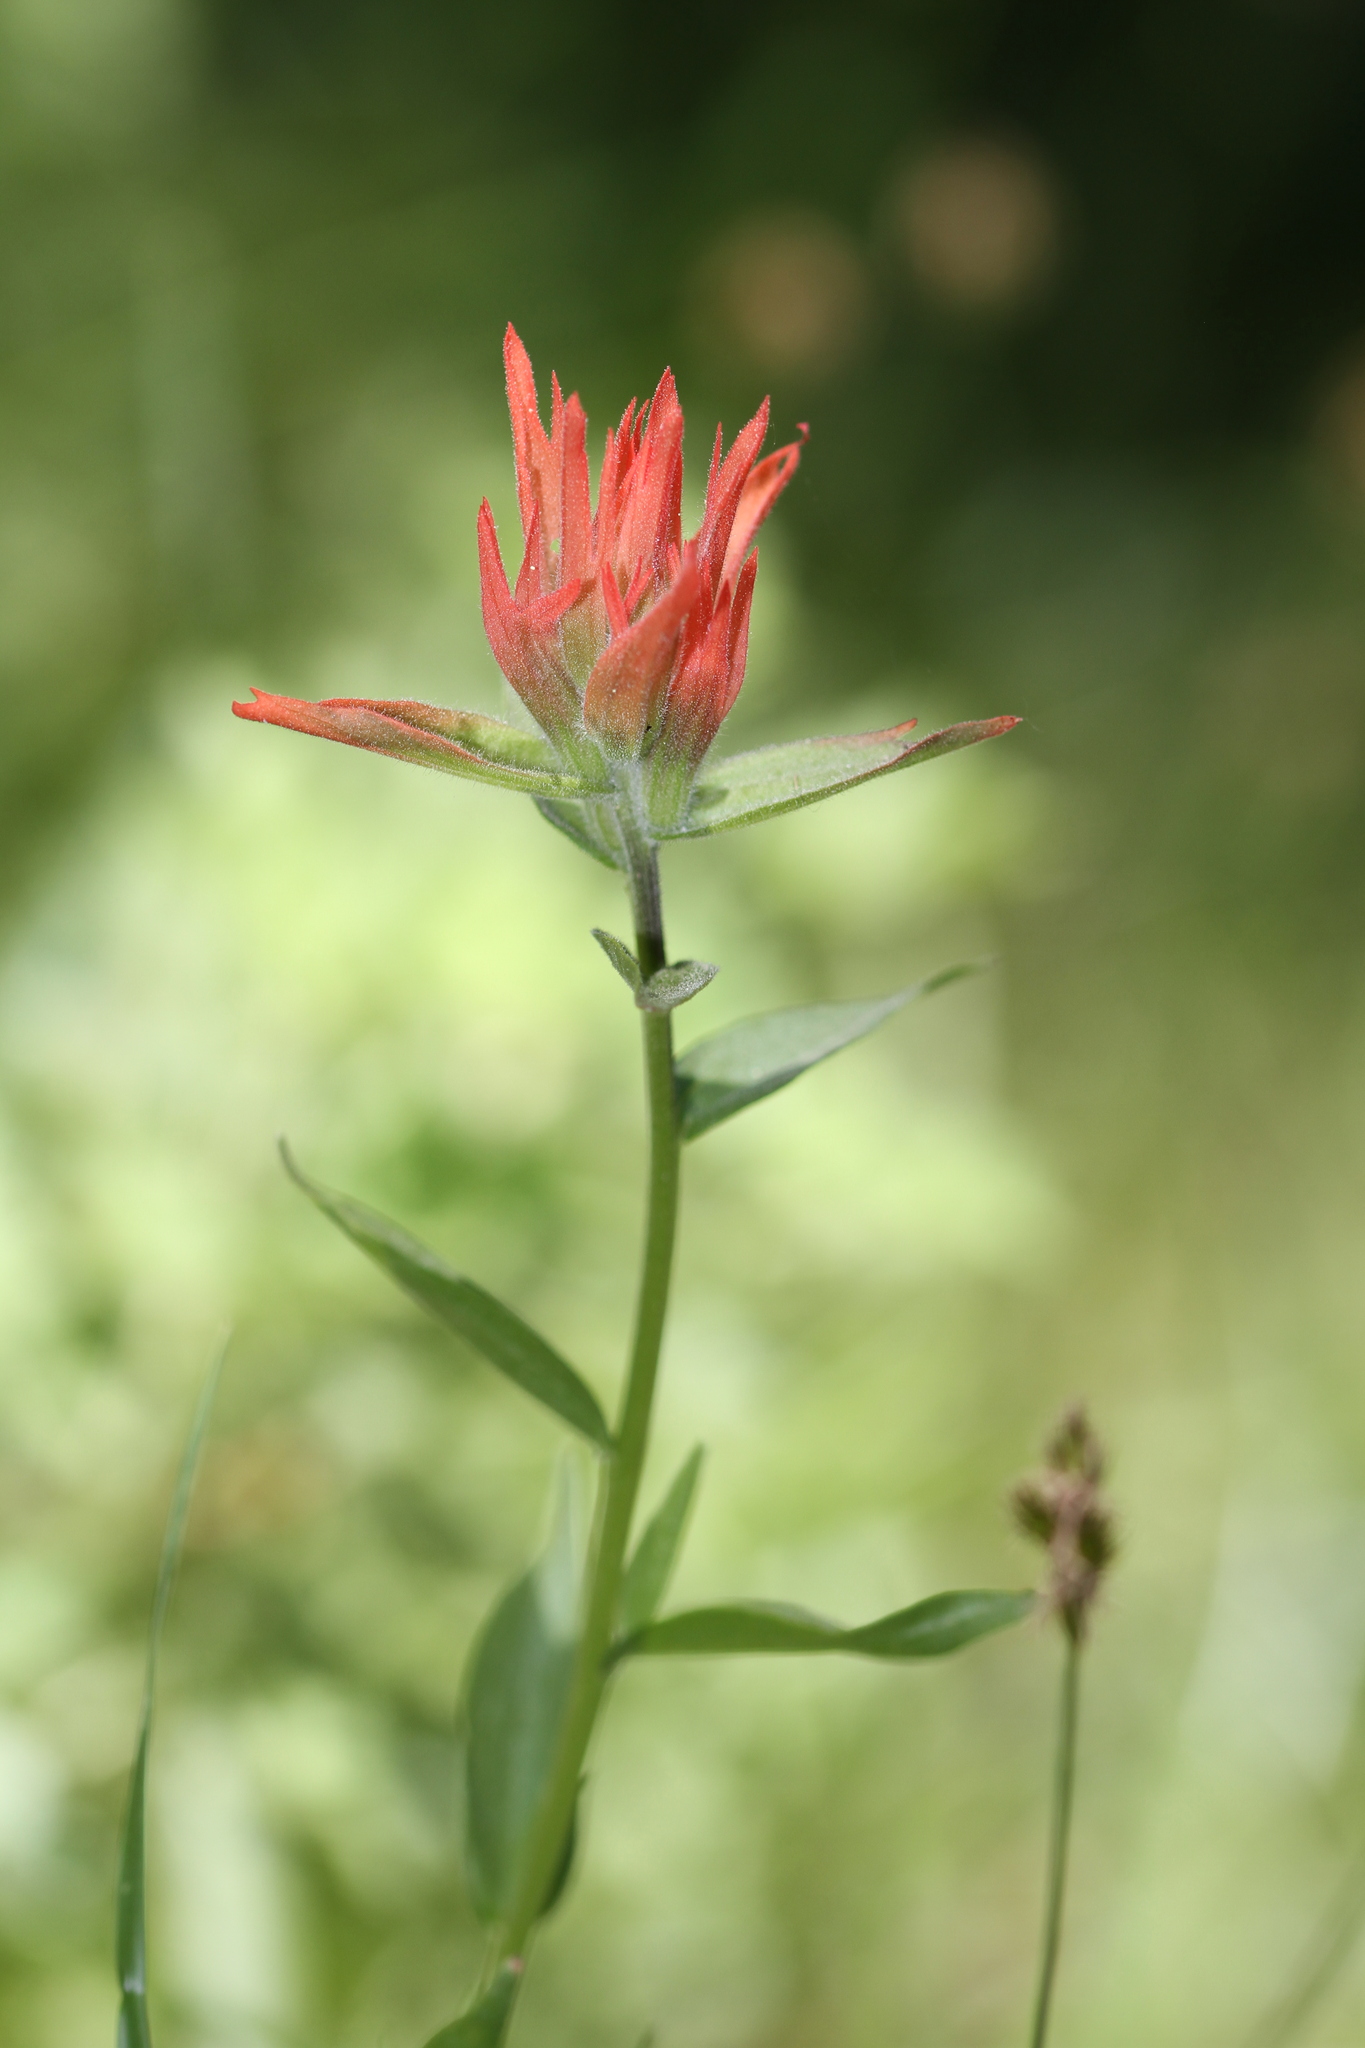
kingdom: Plantae
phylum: Tracheophyta
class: Magnoliopsida
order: Lamiales
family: Orobanchaceae
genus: Castilleja
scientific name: Castilleja miniata
